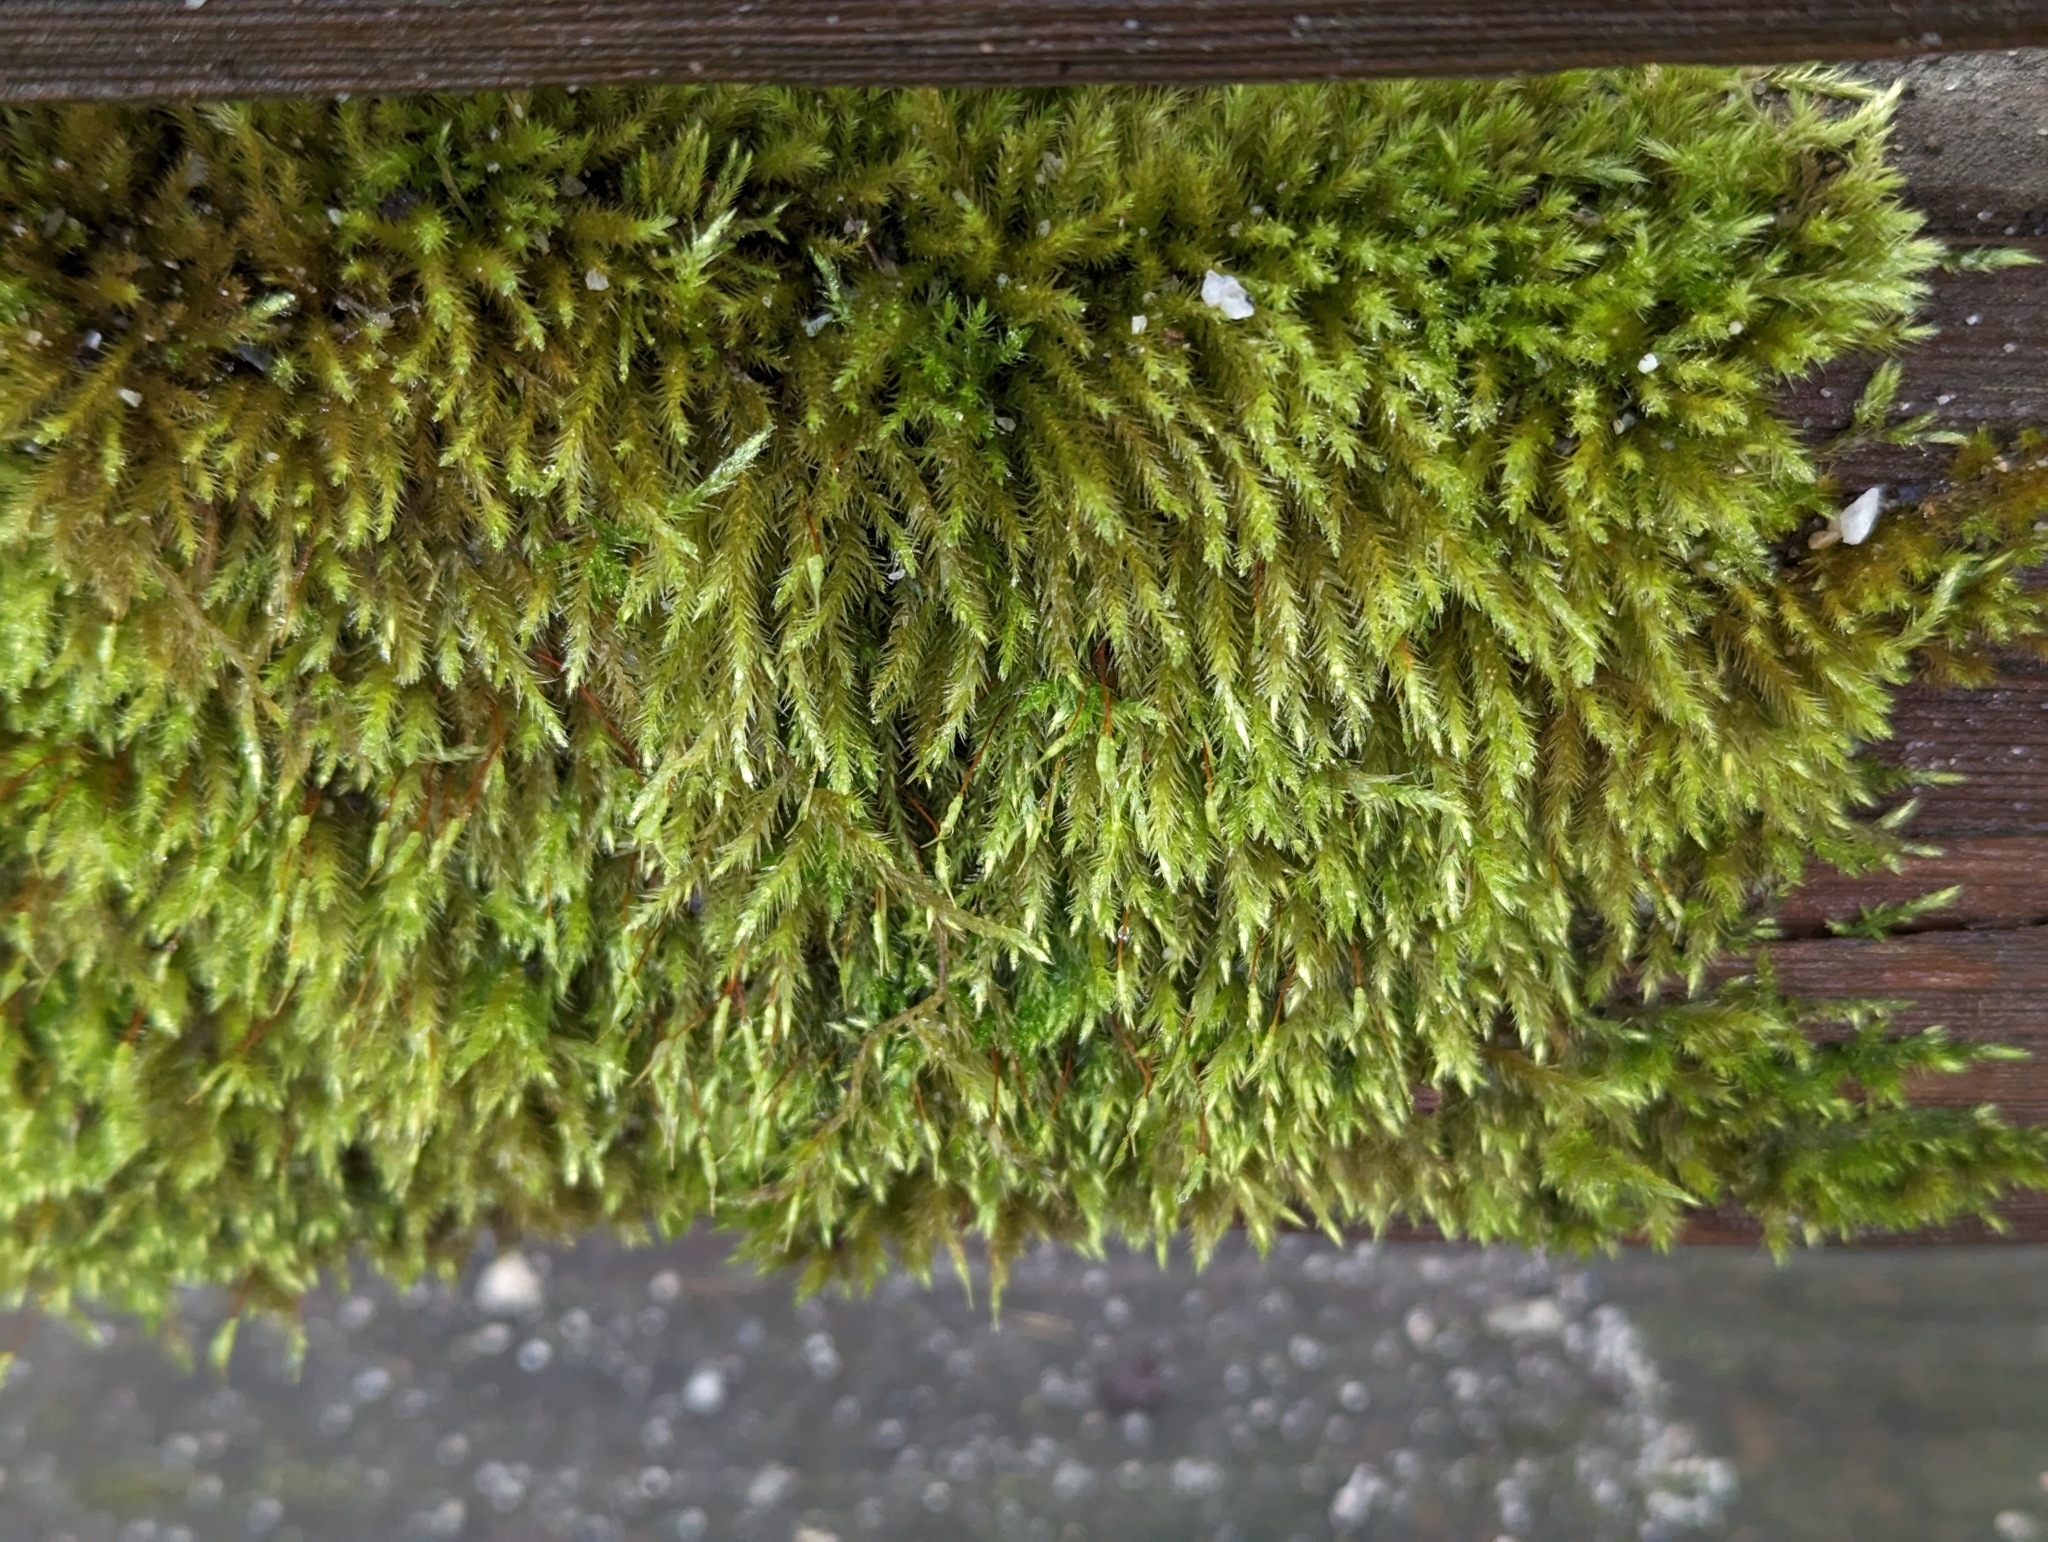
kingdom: Plantae
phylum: Bryophyta
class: Bryopsida
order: Hypnales
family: Brachytheciaceae
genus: Homalothecium
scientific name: Homalothecium fulgescens
